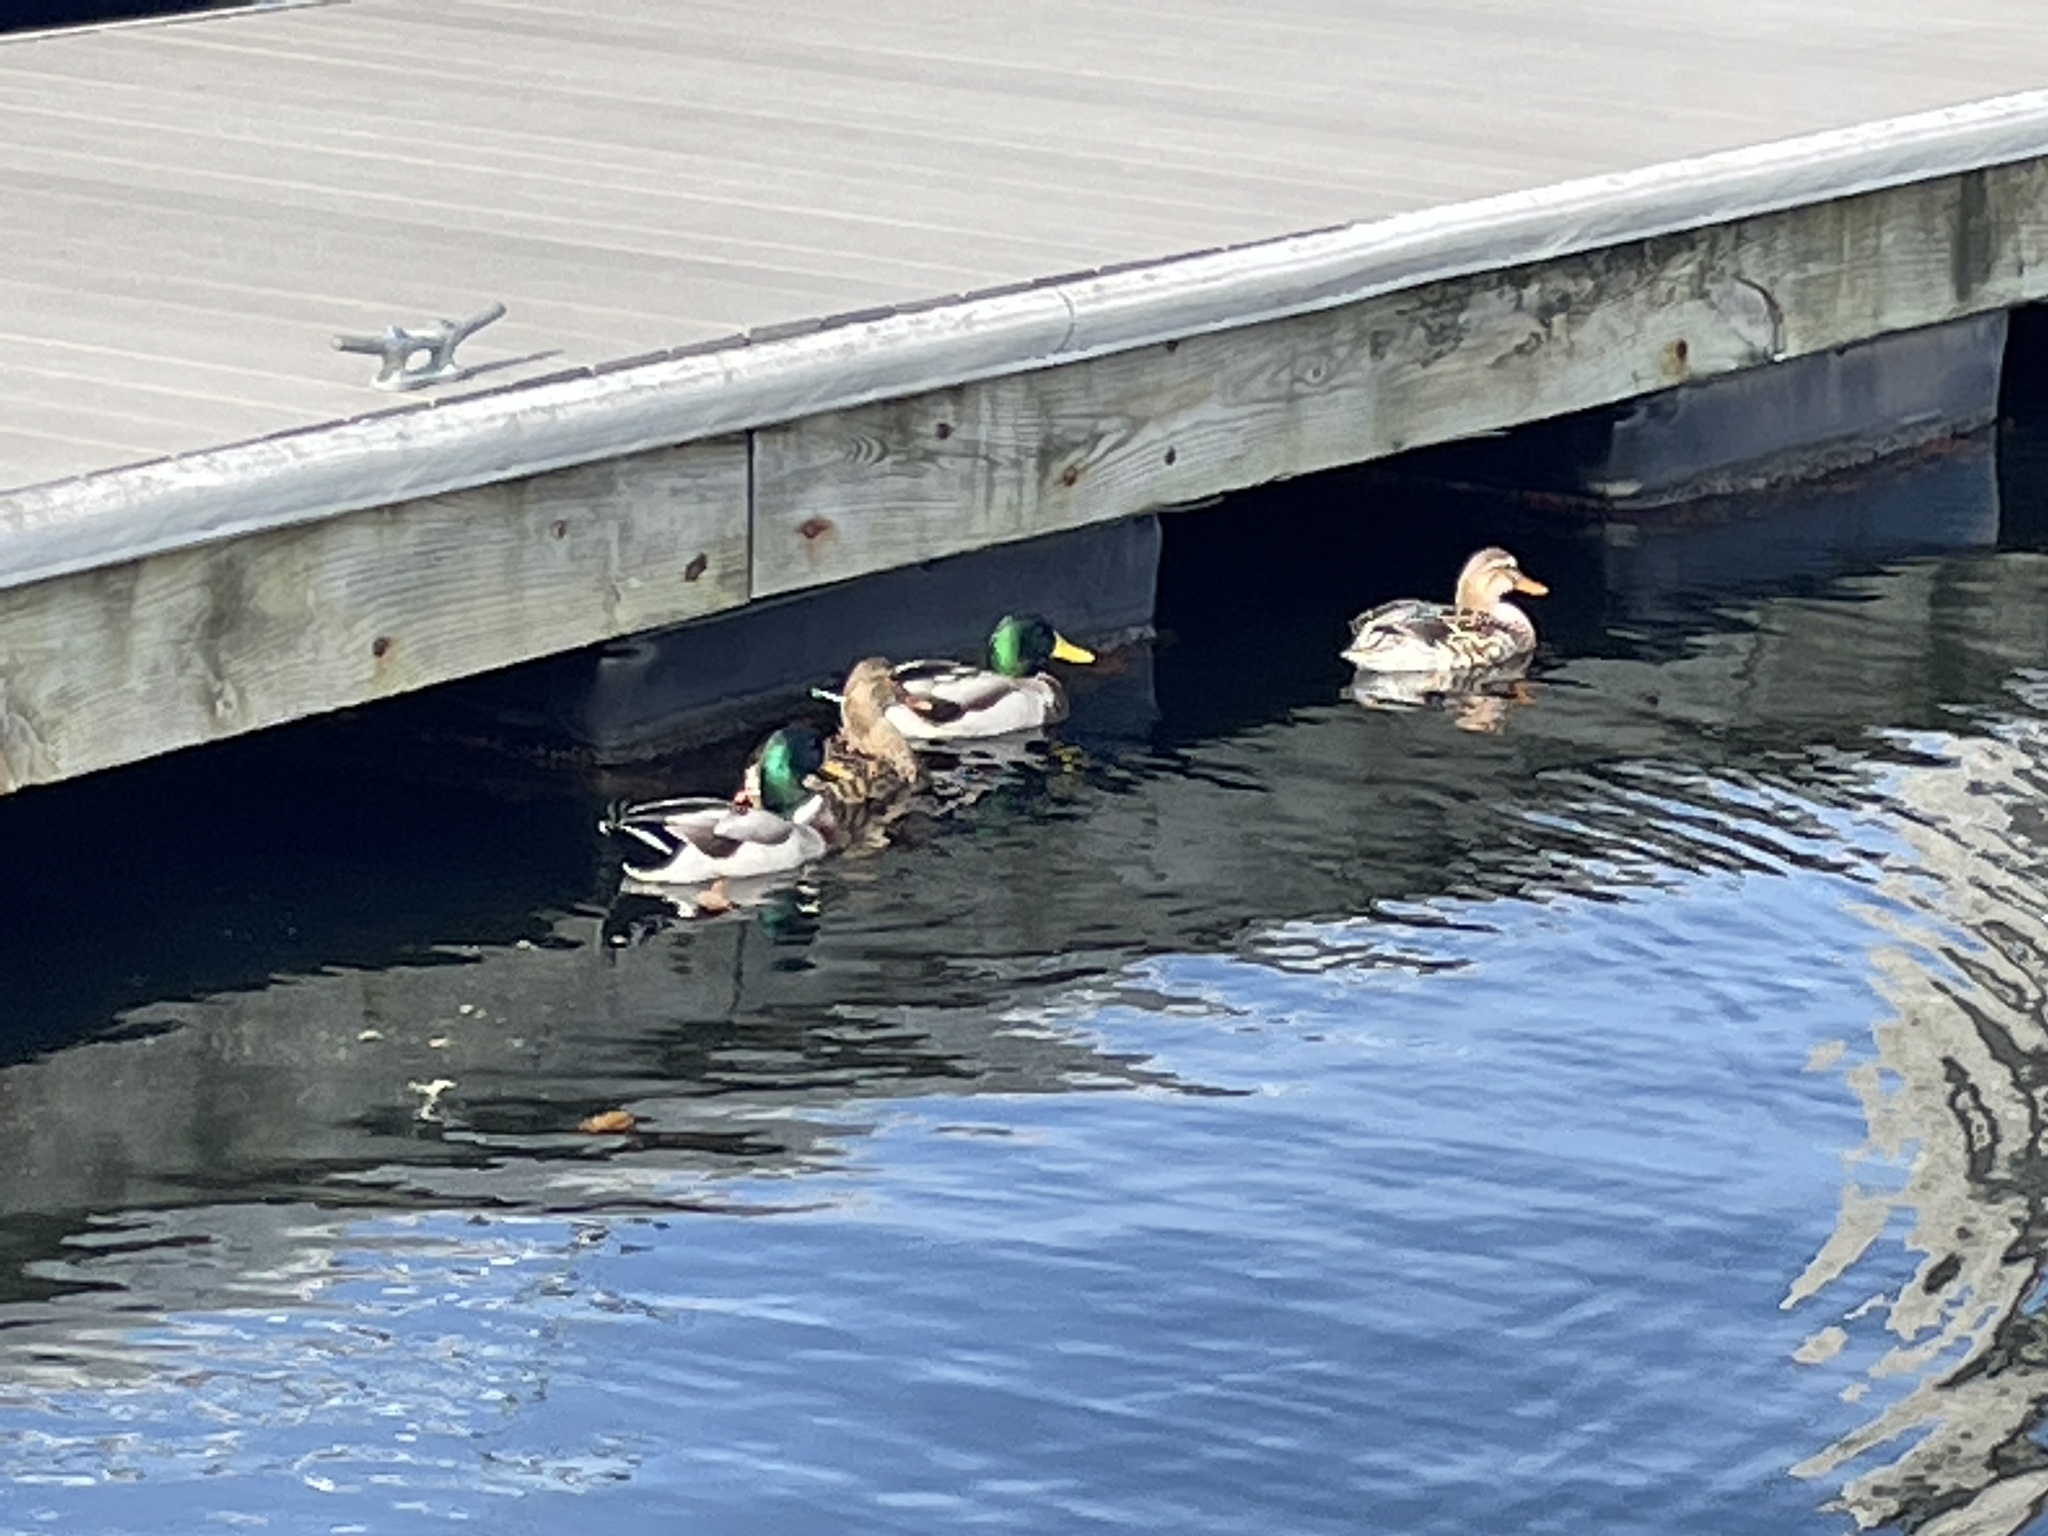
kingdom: Animalia
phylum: Chordata
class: Aves
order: Anseriformes
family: Anatidae
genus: Anas
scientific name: Anas platyrhynchos
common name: Mallard
